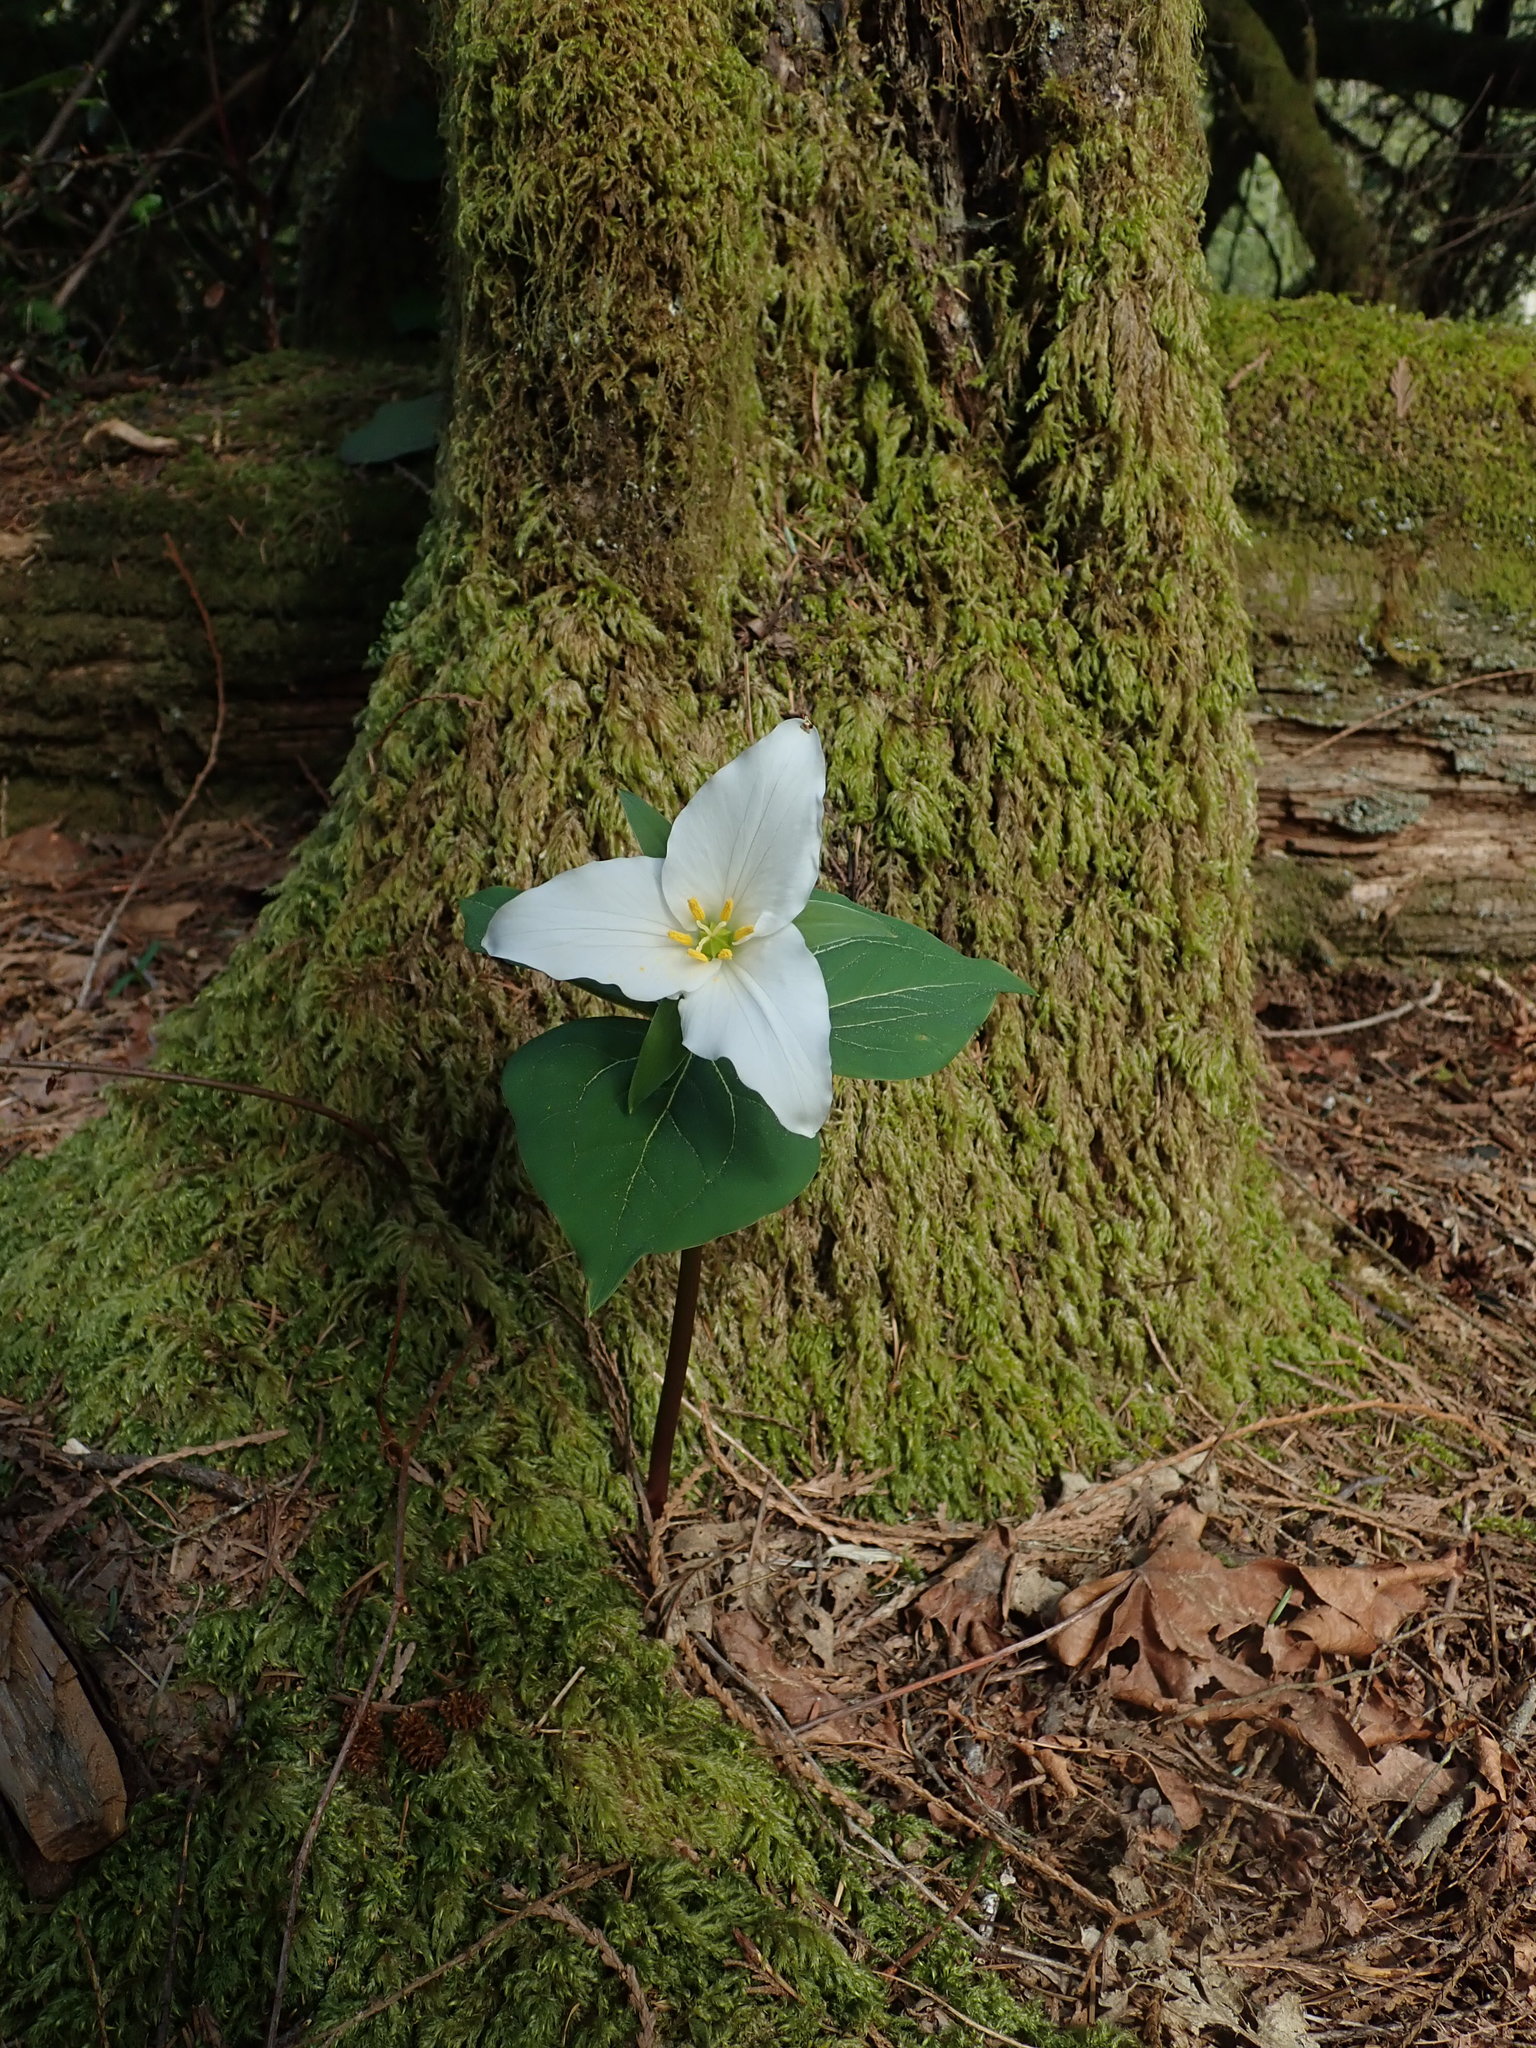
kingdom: Plantae
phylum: Tracheophyta
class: Liliopsida
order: Liliales
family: Melanthiaceae
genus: Trillium
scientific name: Trillium ovatum
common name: Pacific trillium
